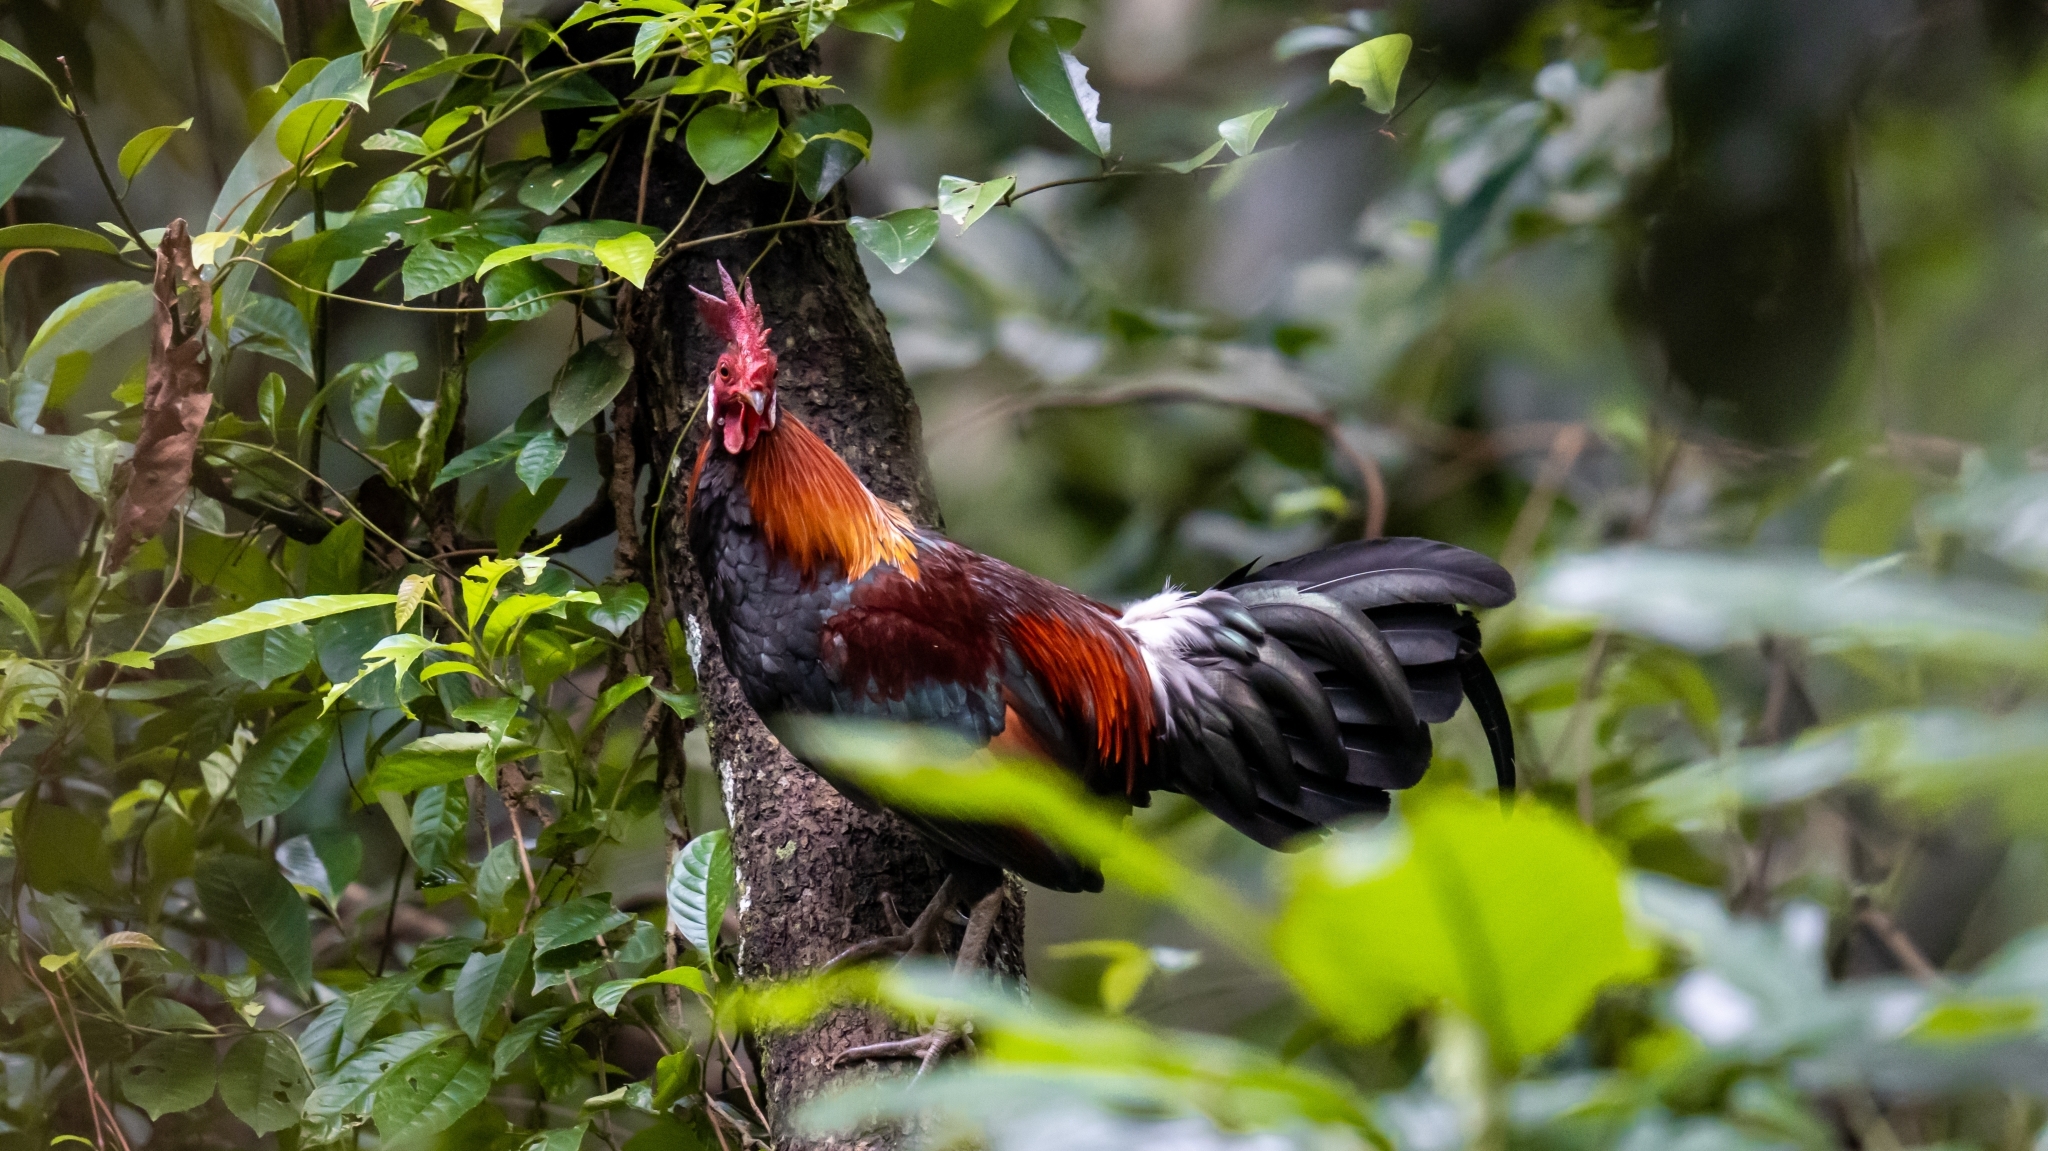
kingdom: Animalia
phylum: Chordata
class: Aves
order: Galliformes
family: Phasianidae
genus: Gallus
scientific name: Gallus gallus
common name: Red junglefowl
